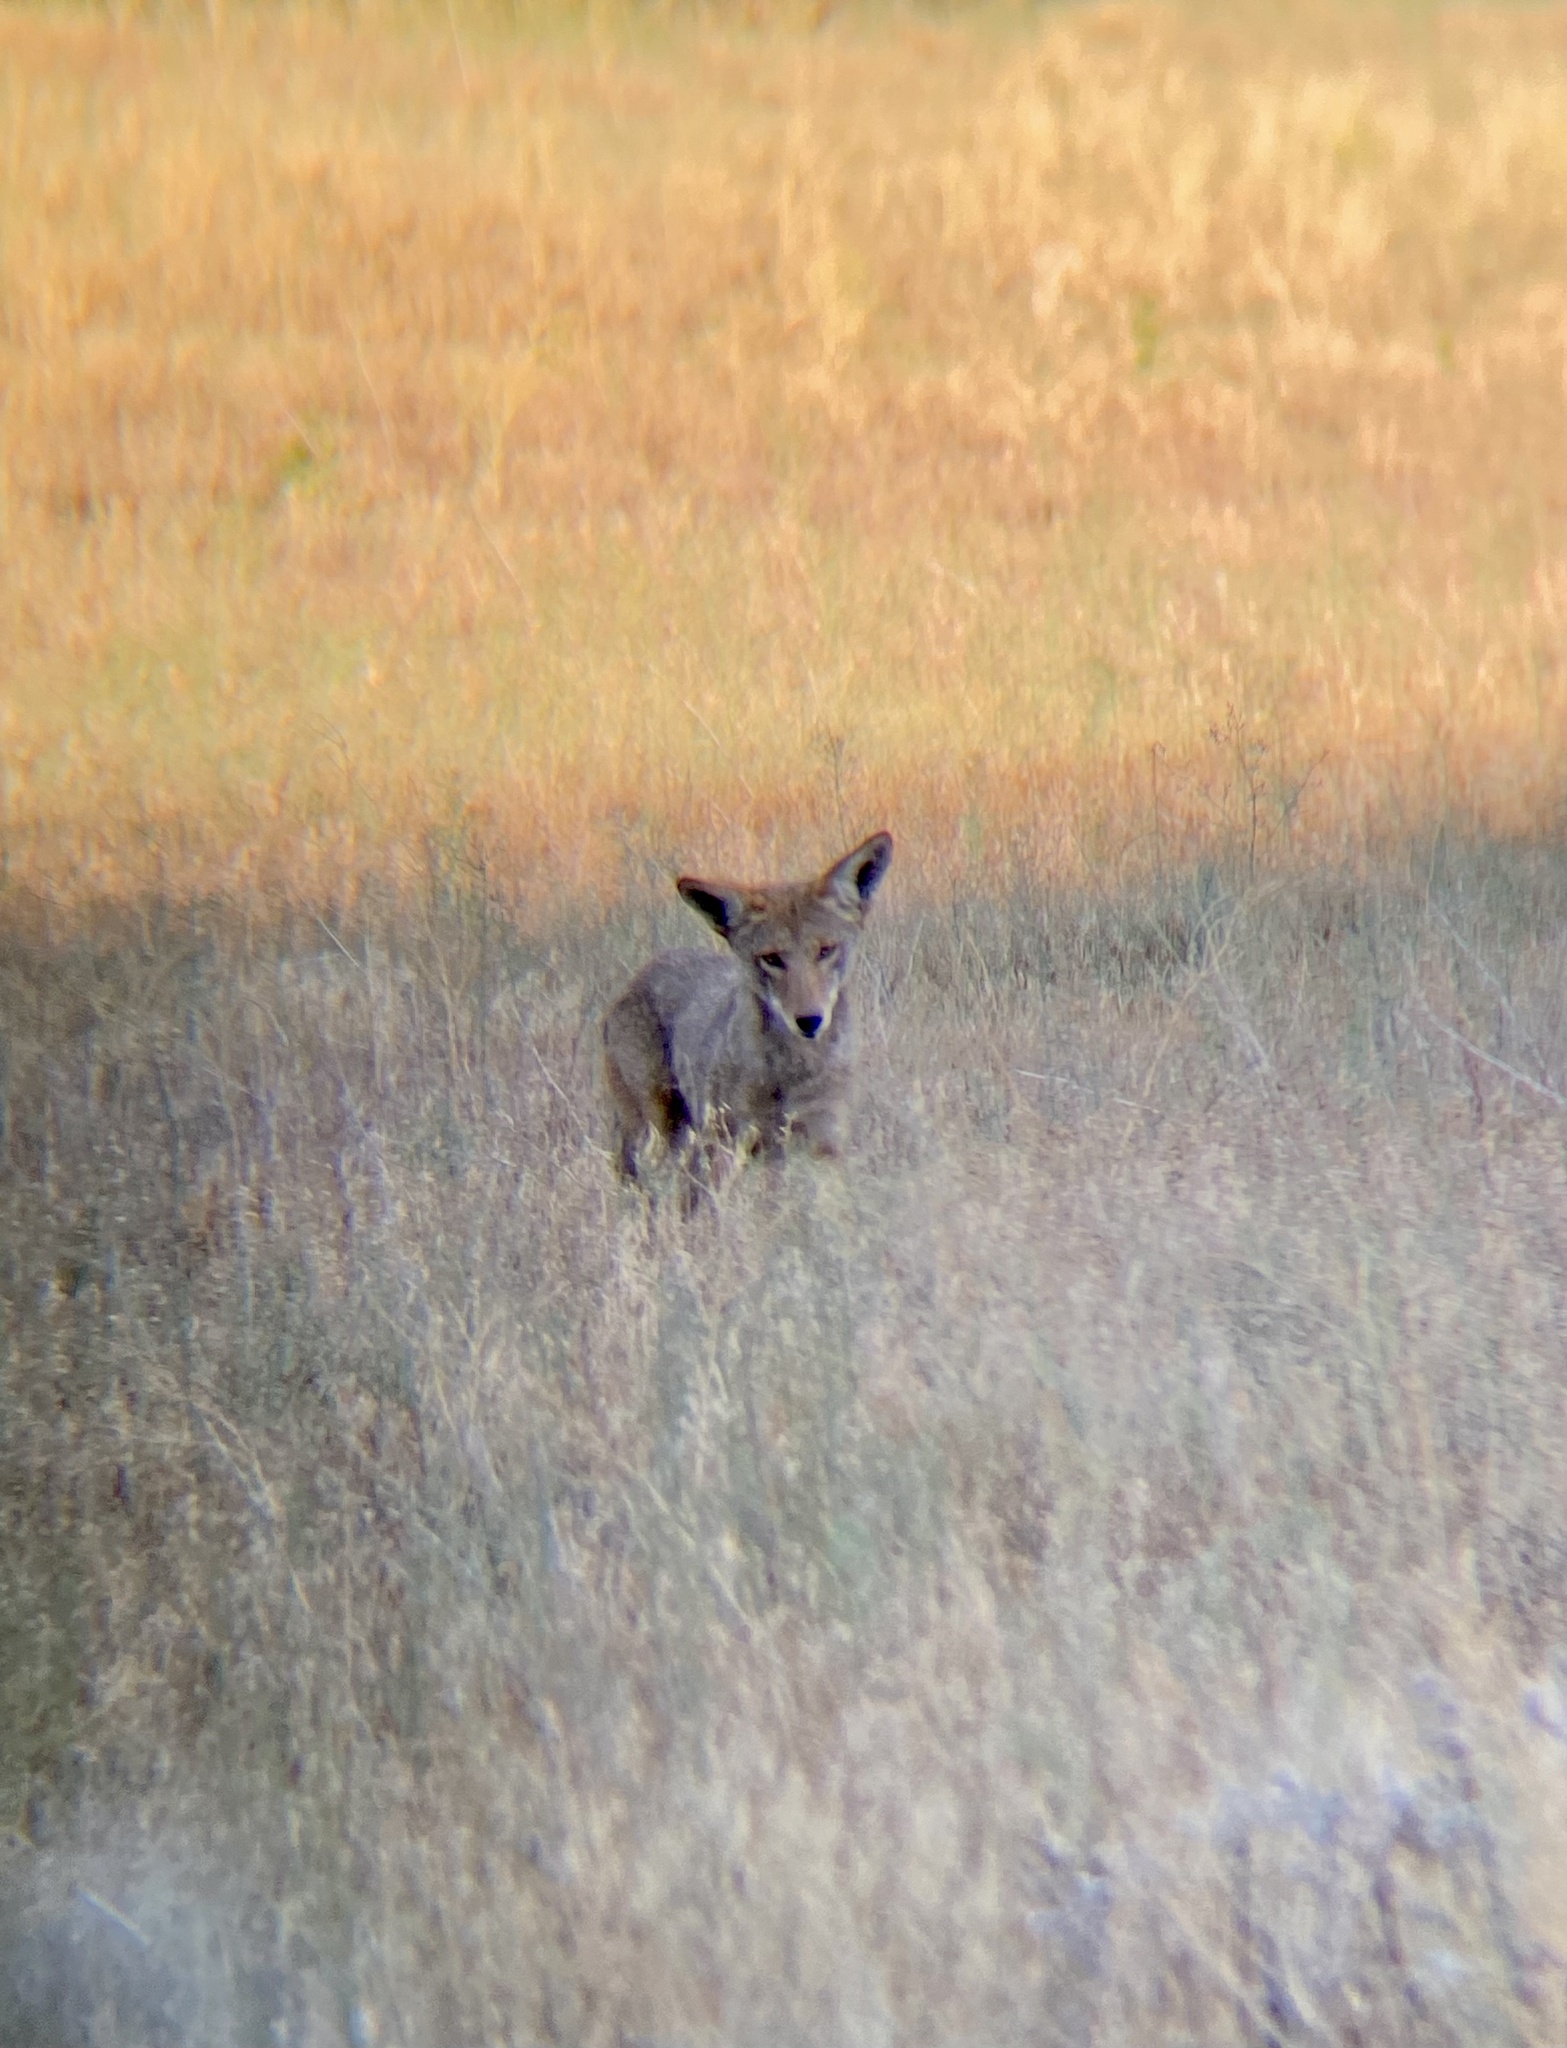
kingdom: Animalia
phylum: Chordata
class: Mammalia
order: Carnivora
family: Canidae
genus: Canis
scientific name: Canis latrans
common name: Coyote
